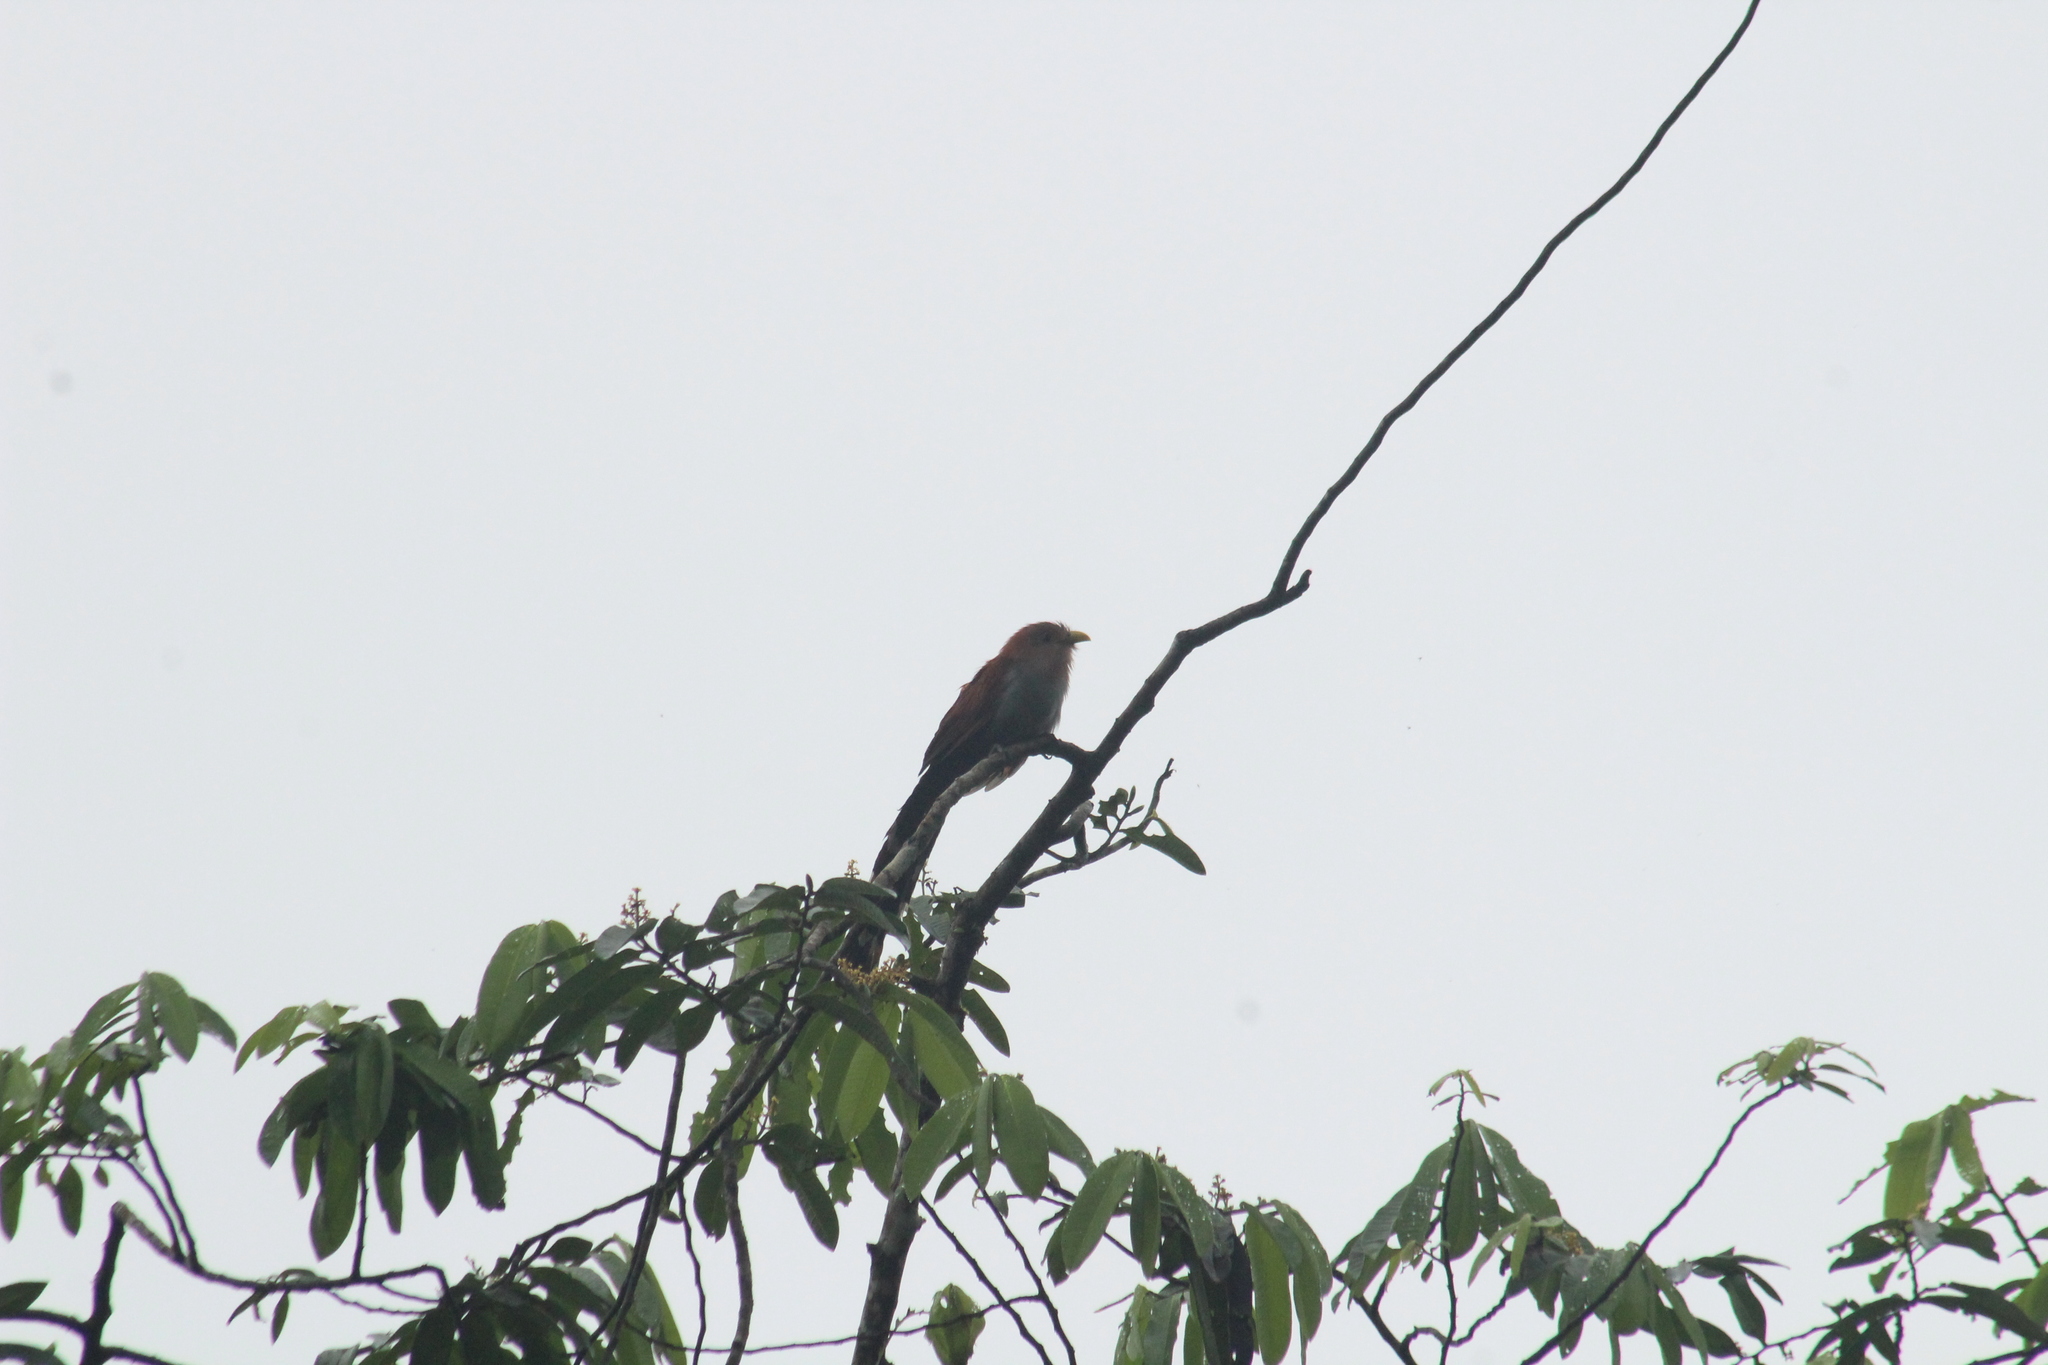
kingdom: Animalia
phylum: Chordata
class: Aves
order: Cuculiformes
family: Cuculidae
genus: Piaya
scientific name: Piaya cayana
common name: Squirrel cuckoo
